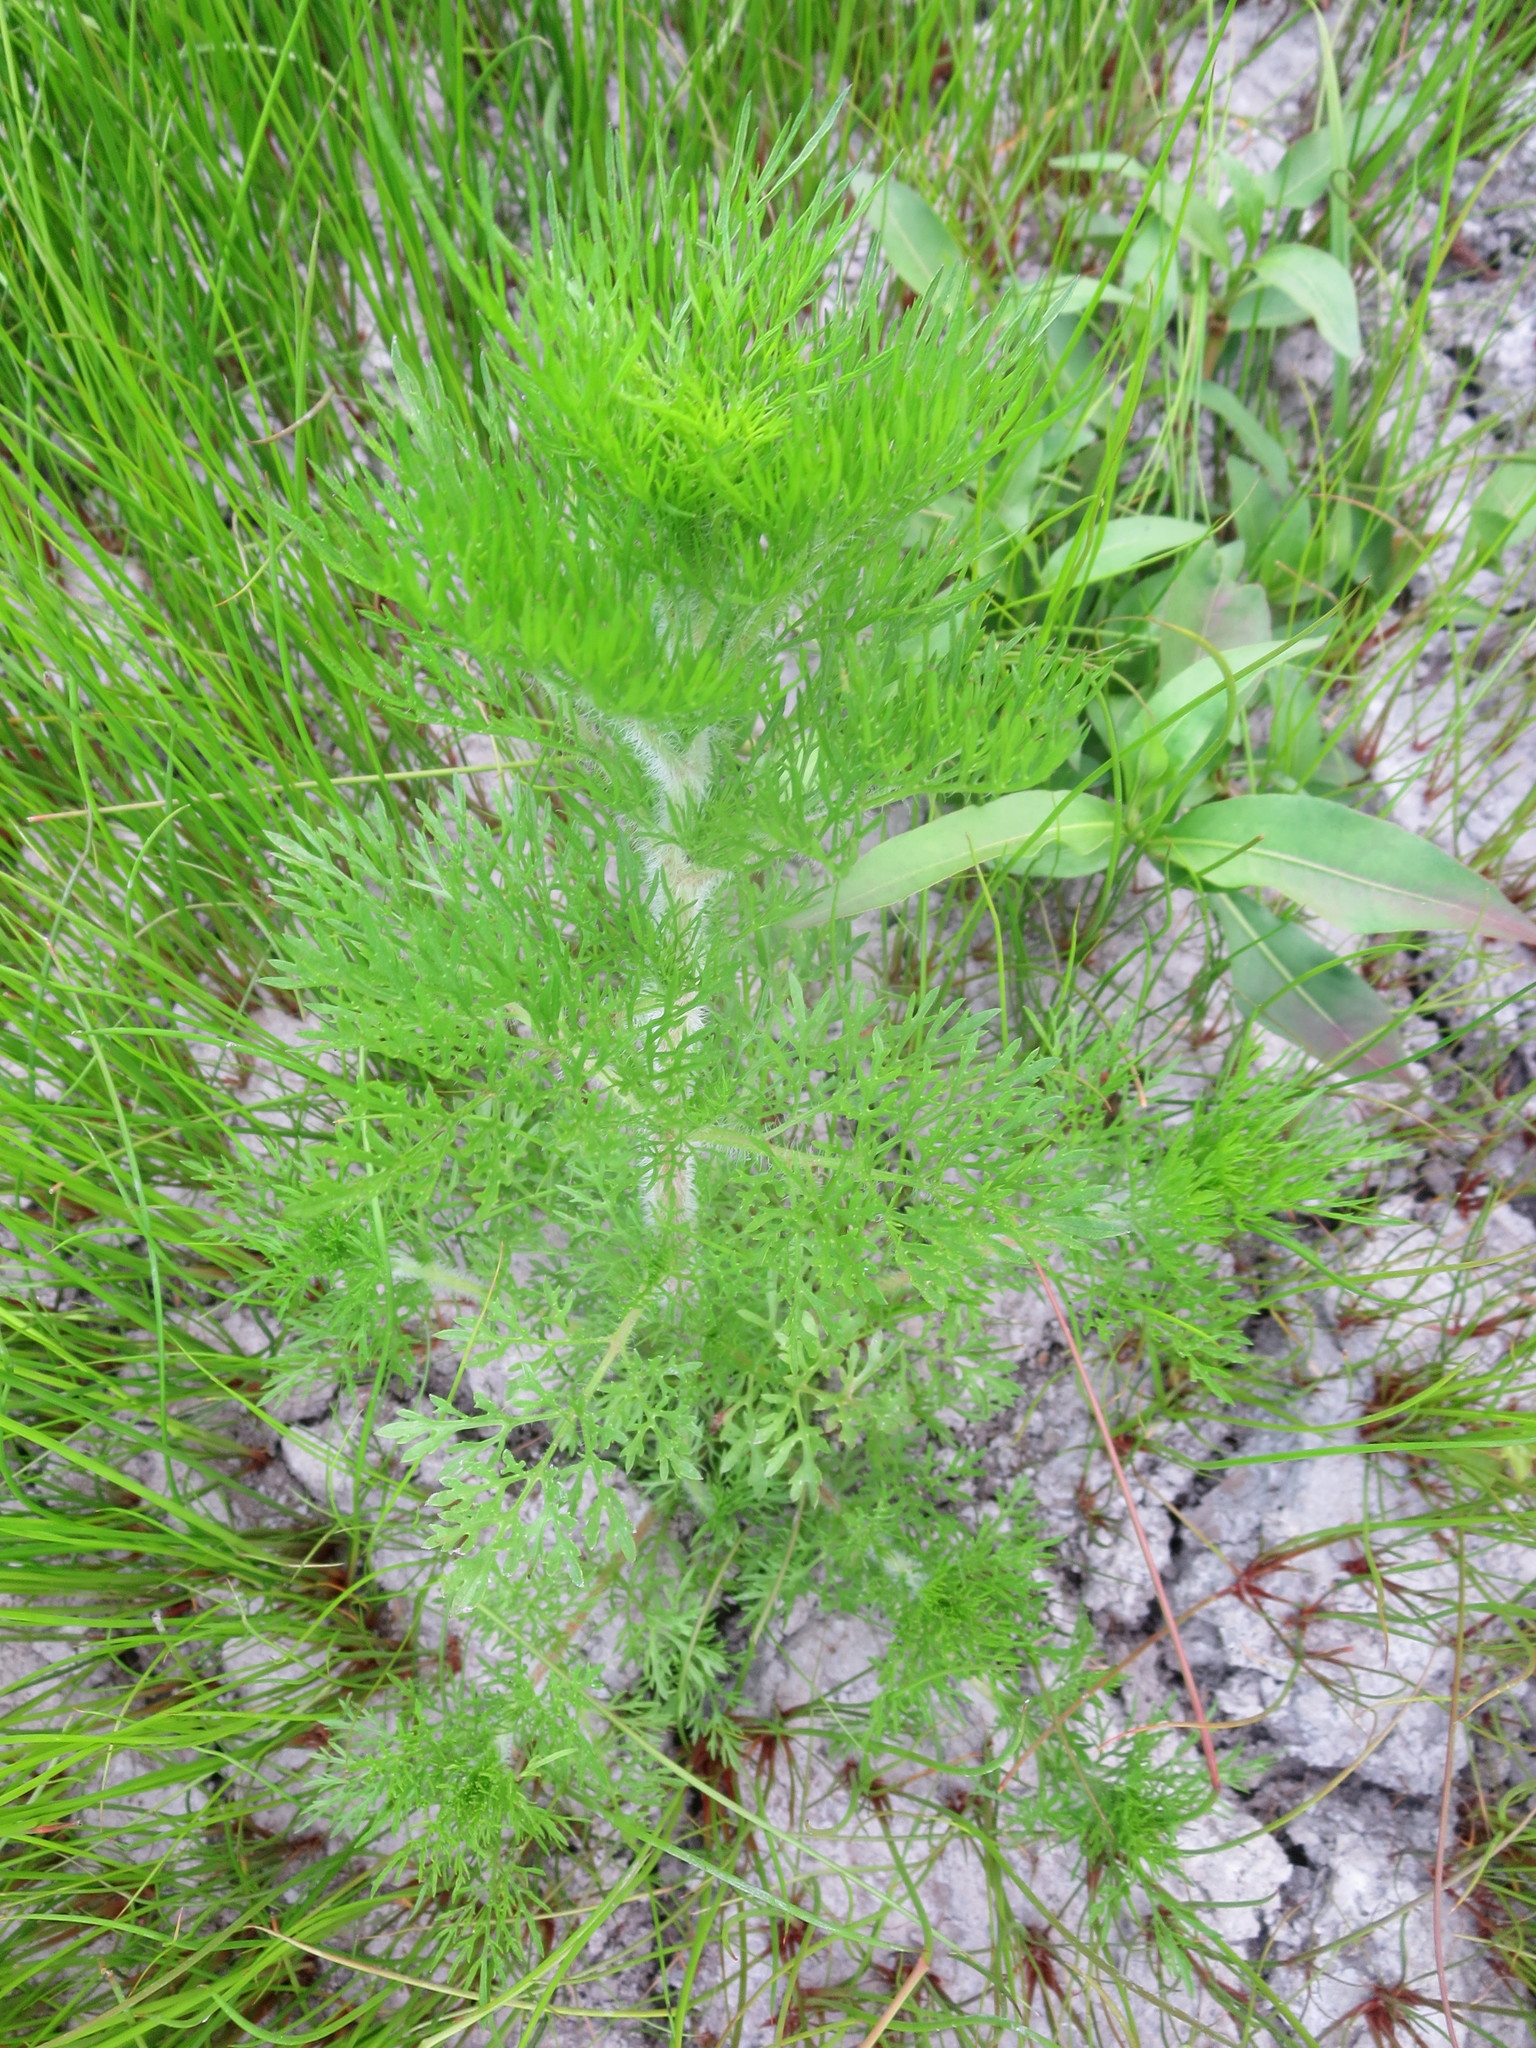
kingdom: Plantae
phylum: Tracheophyta
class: Magnoliopsida
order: Asterales
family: Asteraceae
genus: Eupatorium
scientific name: Eupatorium capillifolium
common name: Dog-fennel
